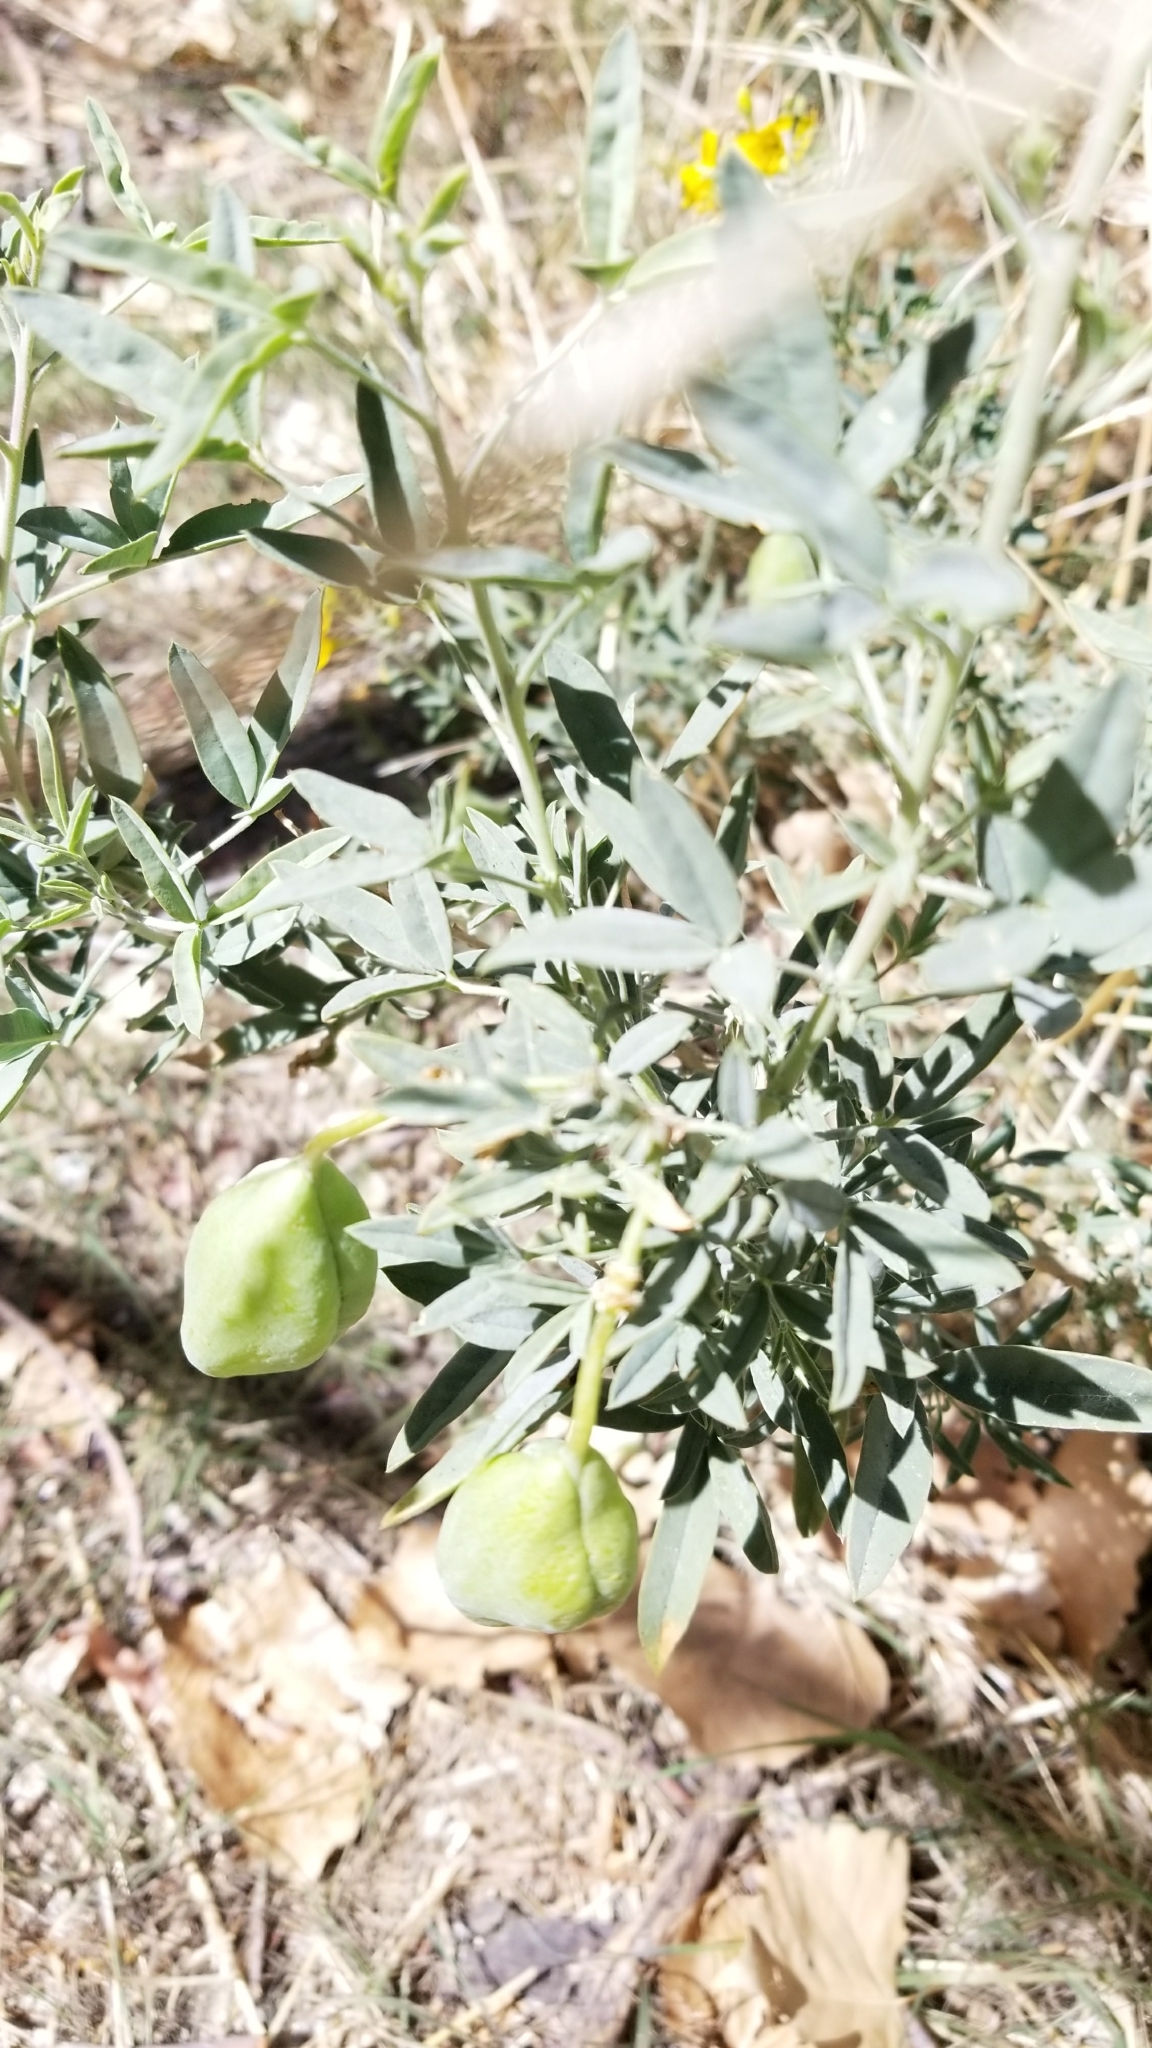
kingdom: Plantae
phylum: Tracheophyta
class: Magnoliopsida
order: Brassicales
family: Cleomaceae
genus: Cleomella
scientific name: Cleomella arborea
